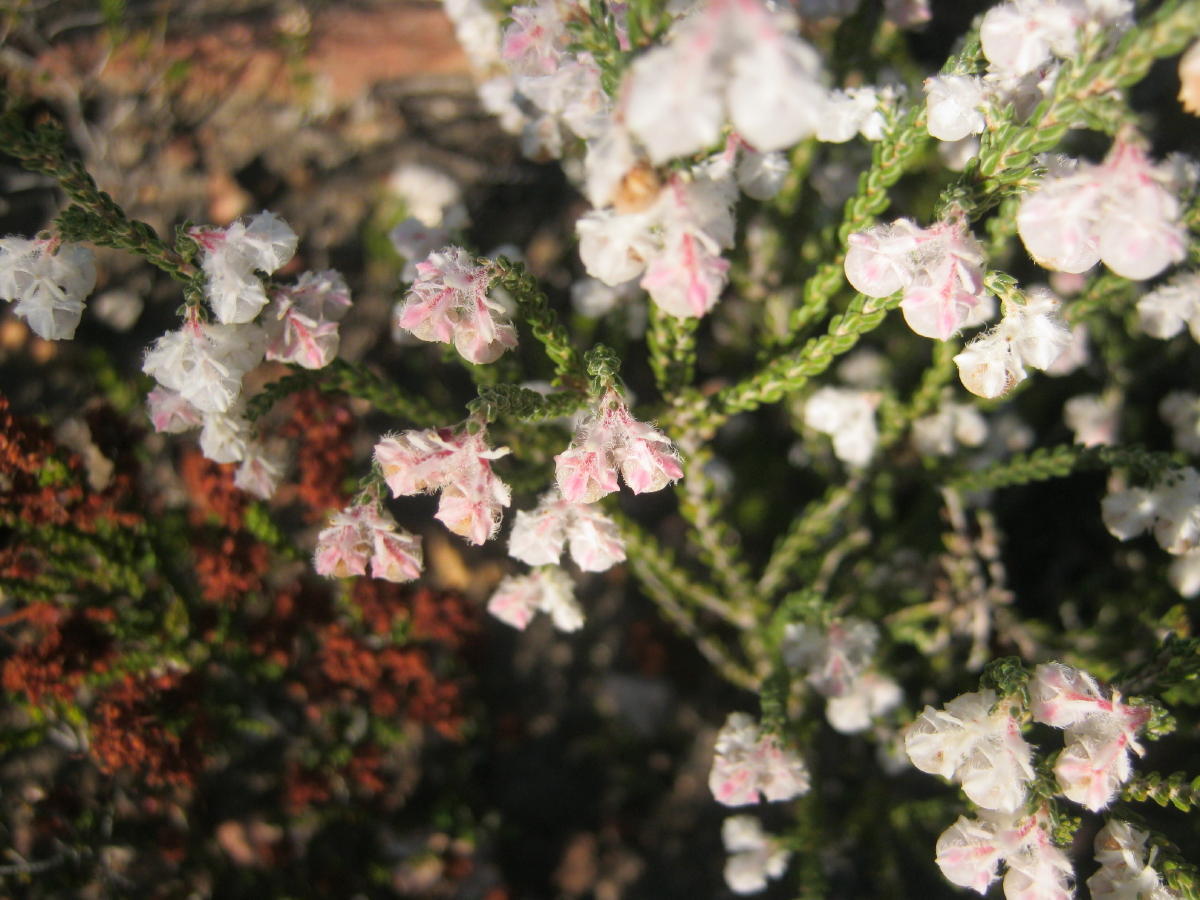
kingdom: Plantae
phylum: Tracheophyta
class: Magnoliopsida
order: Ericales
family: Ericaceae
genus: Erica
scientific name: Erica fimbriata
